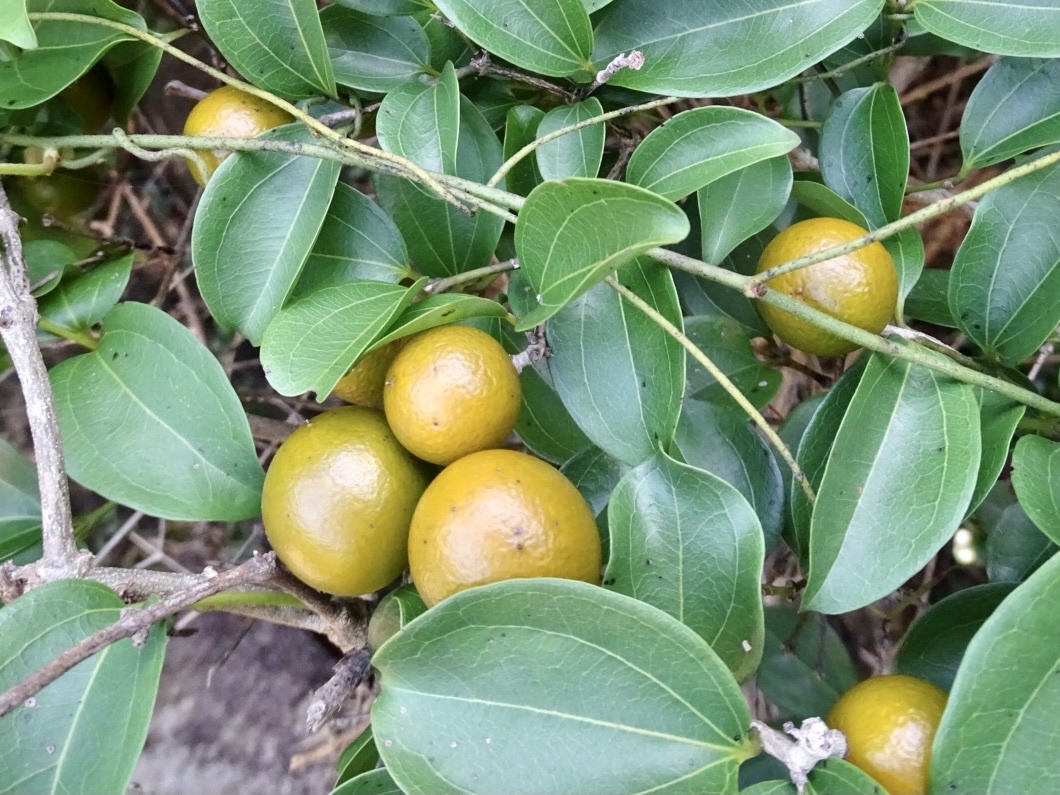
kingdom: Plantae
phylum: Tracheophyta
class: Magnoliopsida
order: Gentianales
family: Loganiaceae
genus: Strychnos
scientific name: Strychnos angustiflora
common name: Narrow-flower poisonnut
